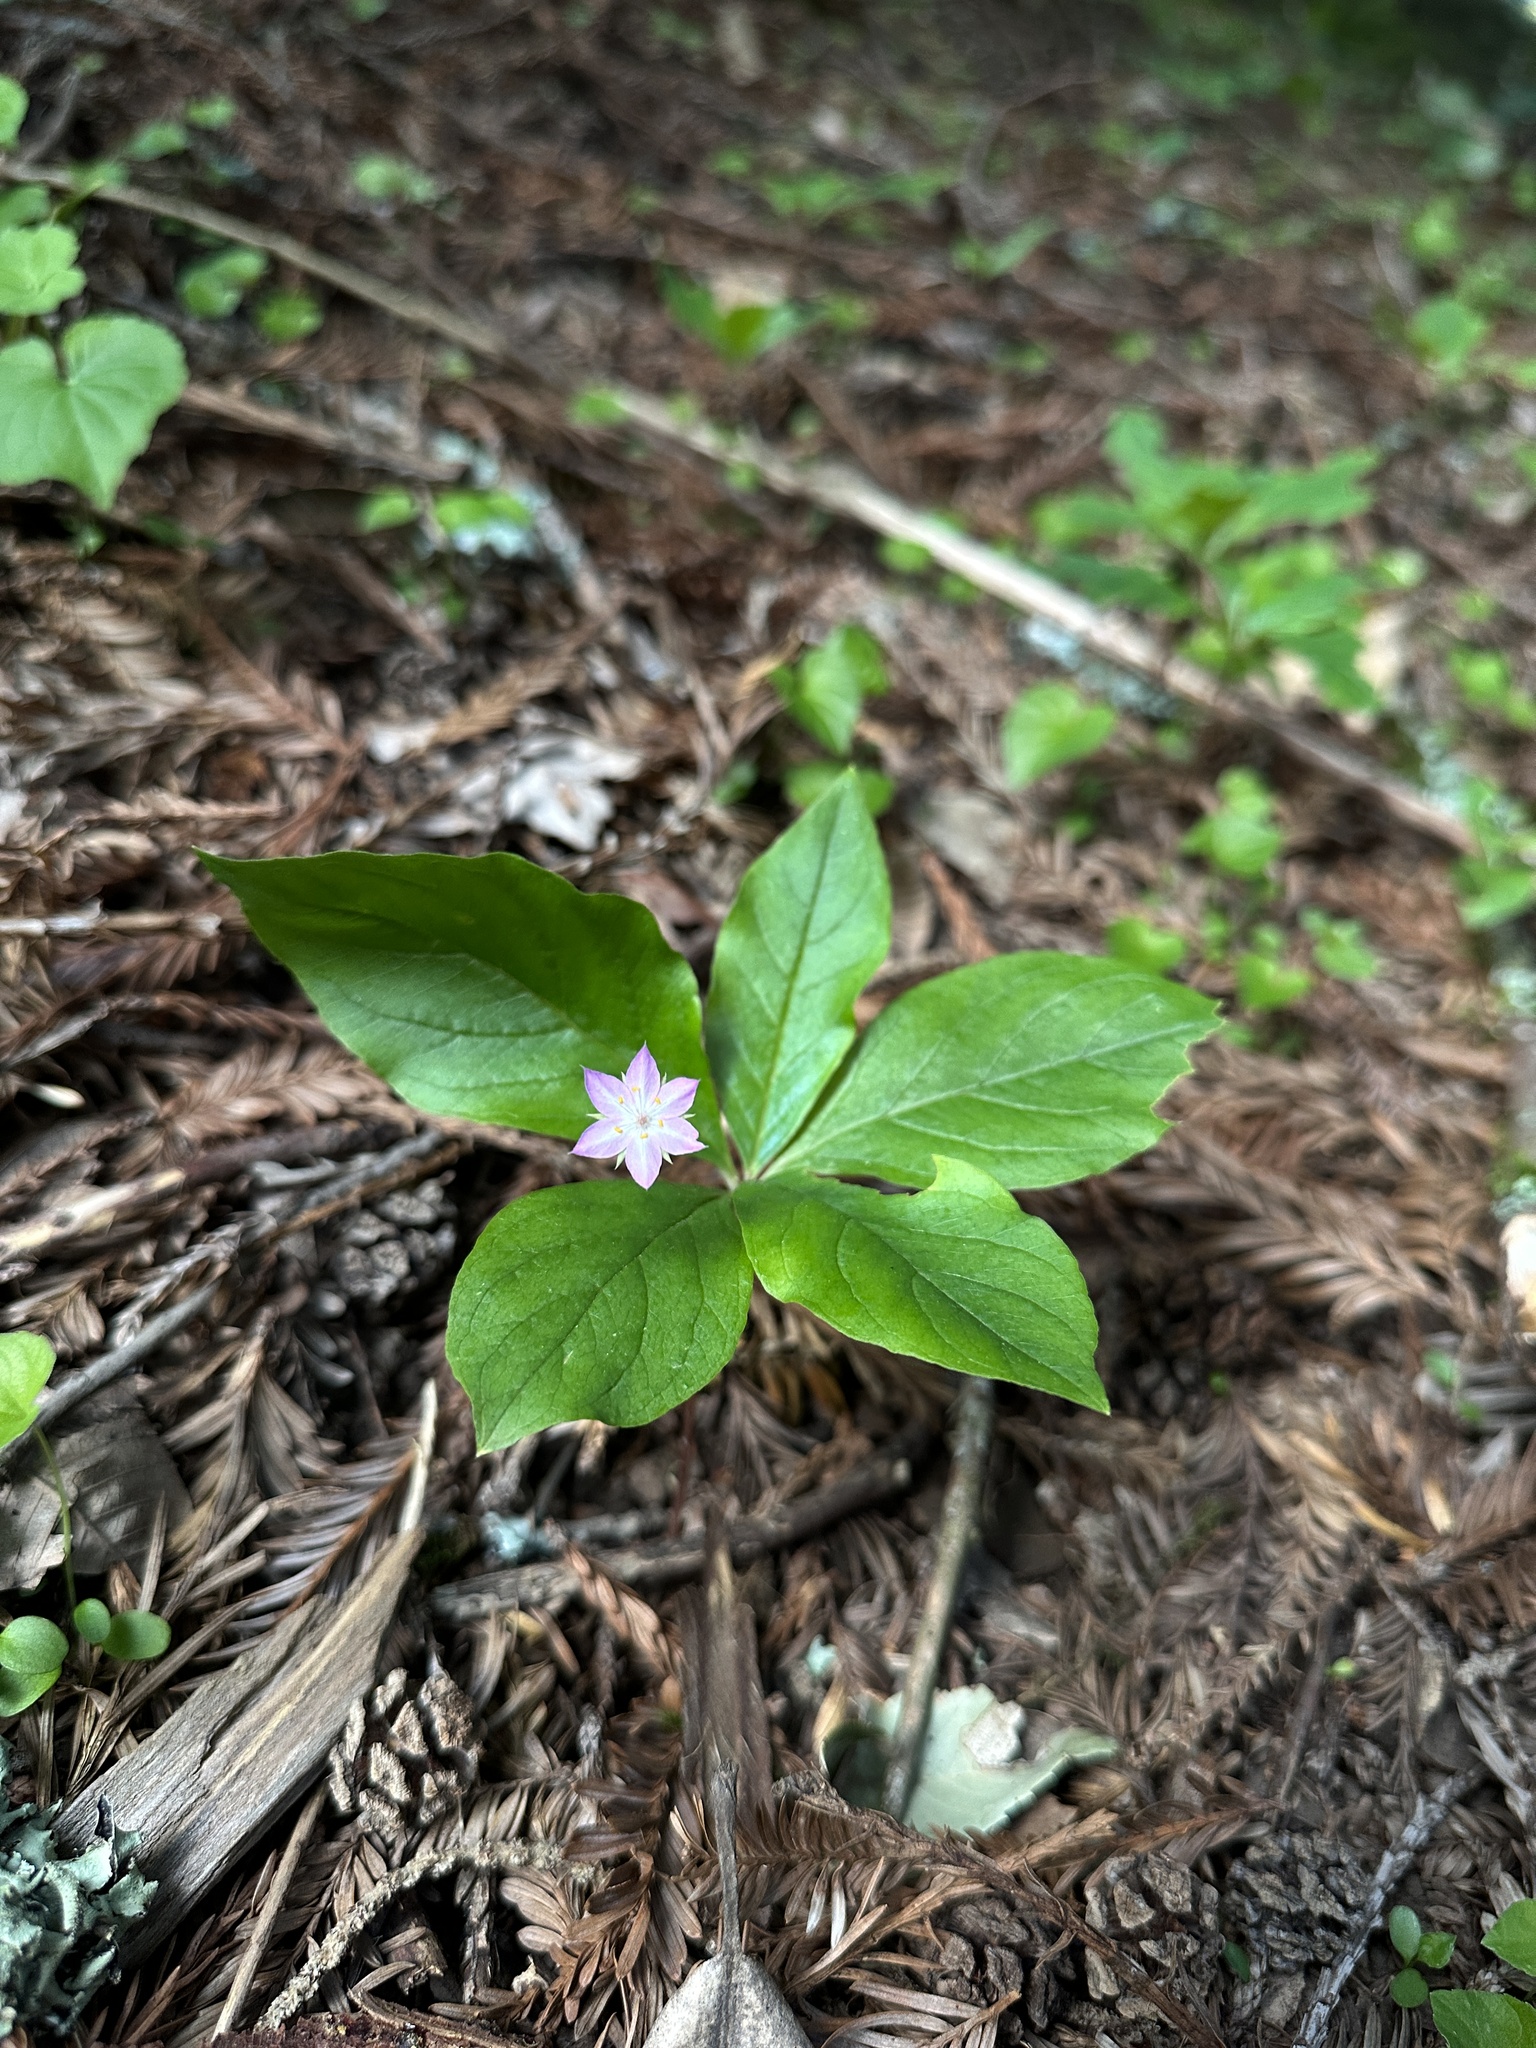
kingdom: Plantae
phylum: Tracheophyta
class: Magnoliopsida
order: Ericales
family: Primulaceae
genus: Lysimachia
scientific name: Lysimachia latifolia
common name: Pacific starflower
